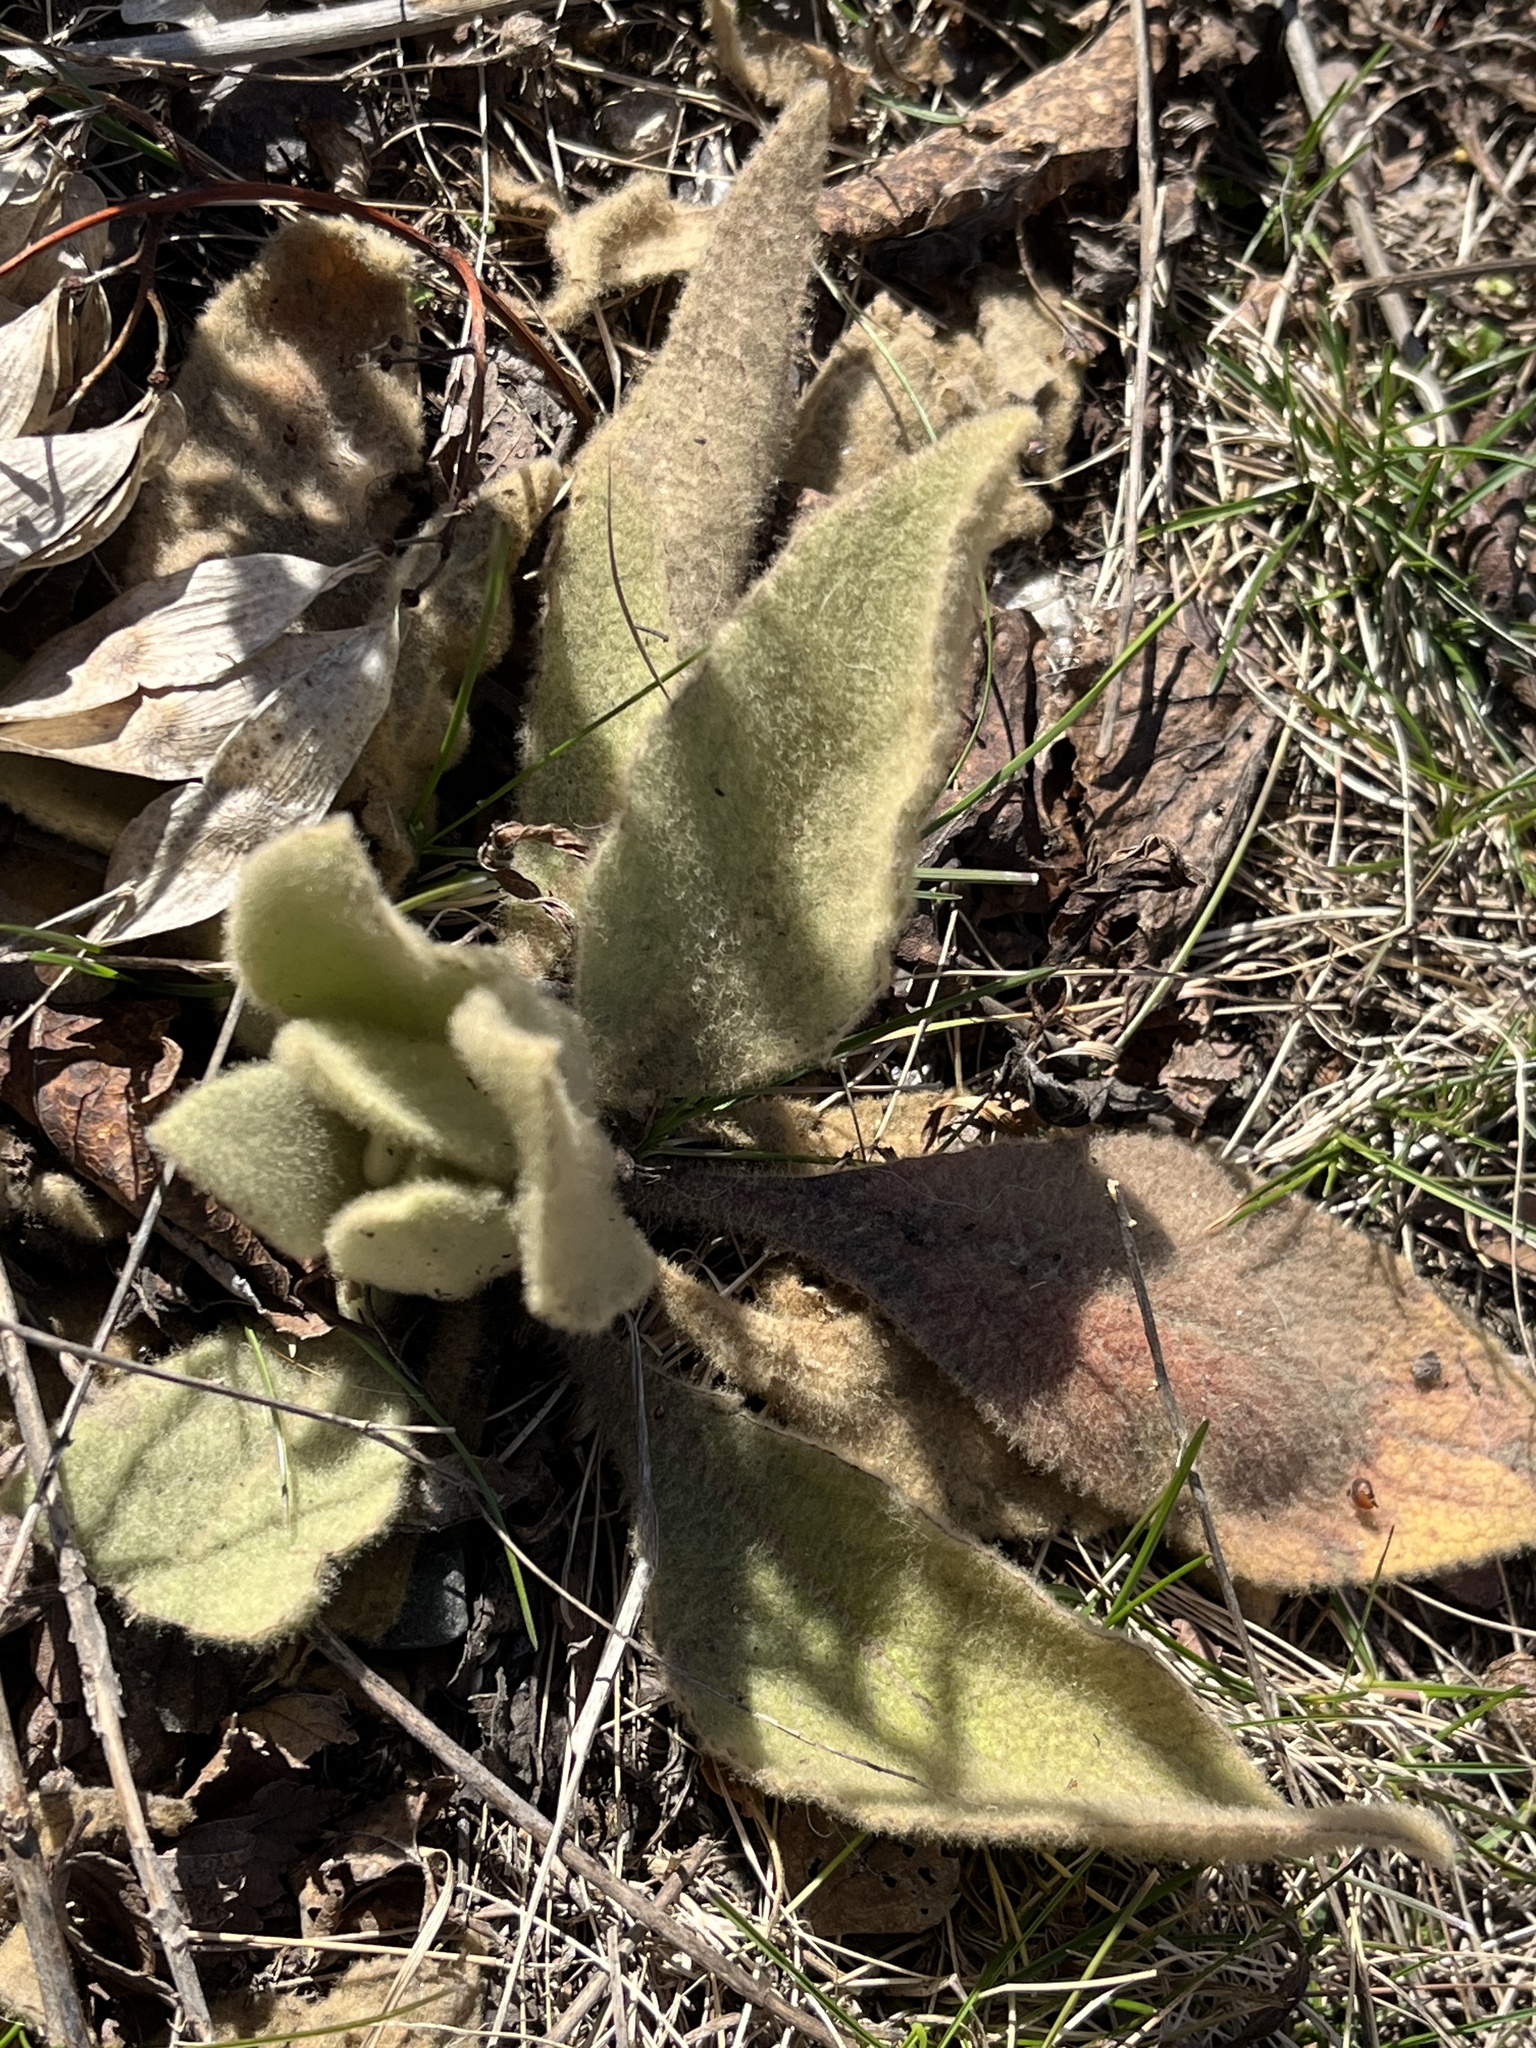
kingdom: Plantae
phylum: Tracheophyta
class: Magnoliopsida
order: Lamiales
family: Scrophulariaceae
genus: Verbascum
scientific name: Verbascum thapsus
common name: Common mullein
